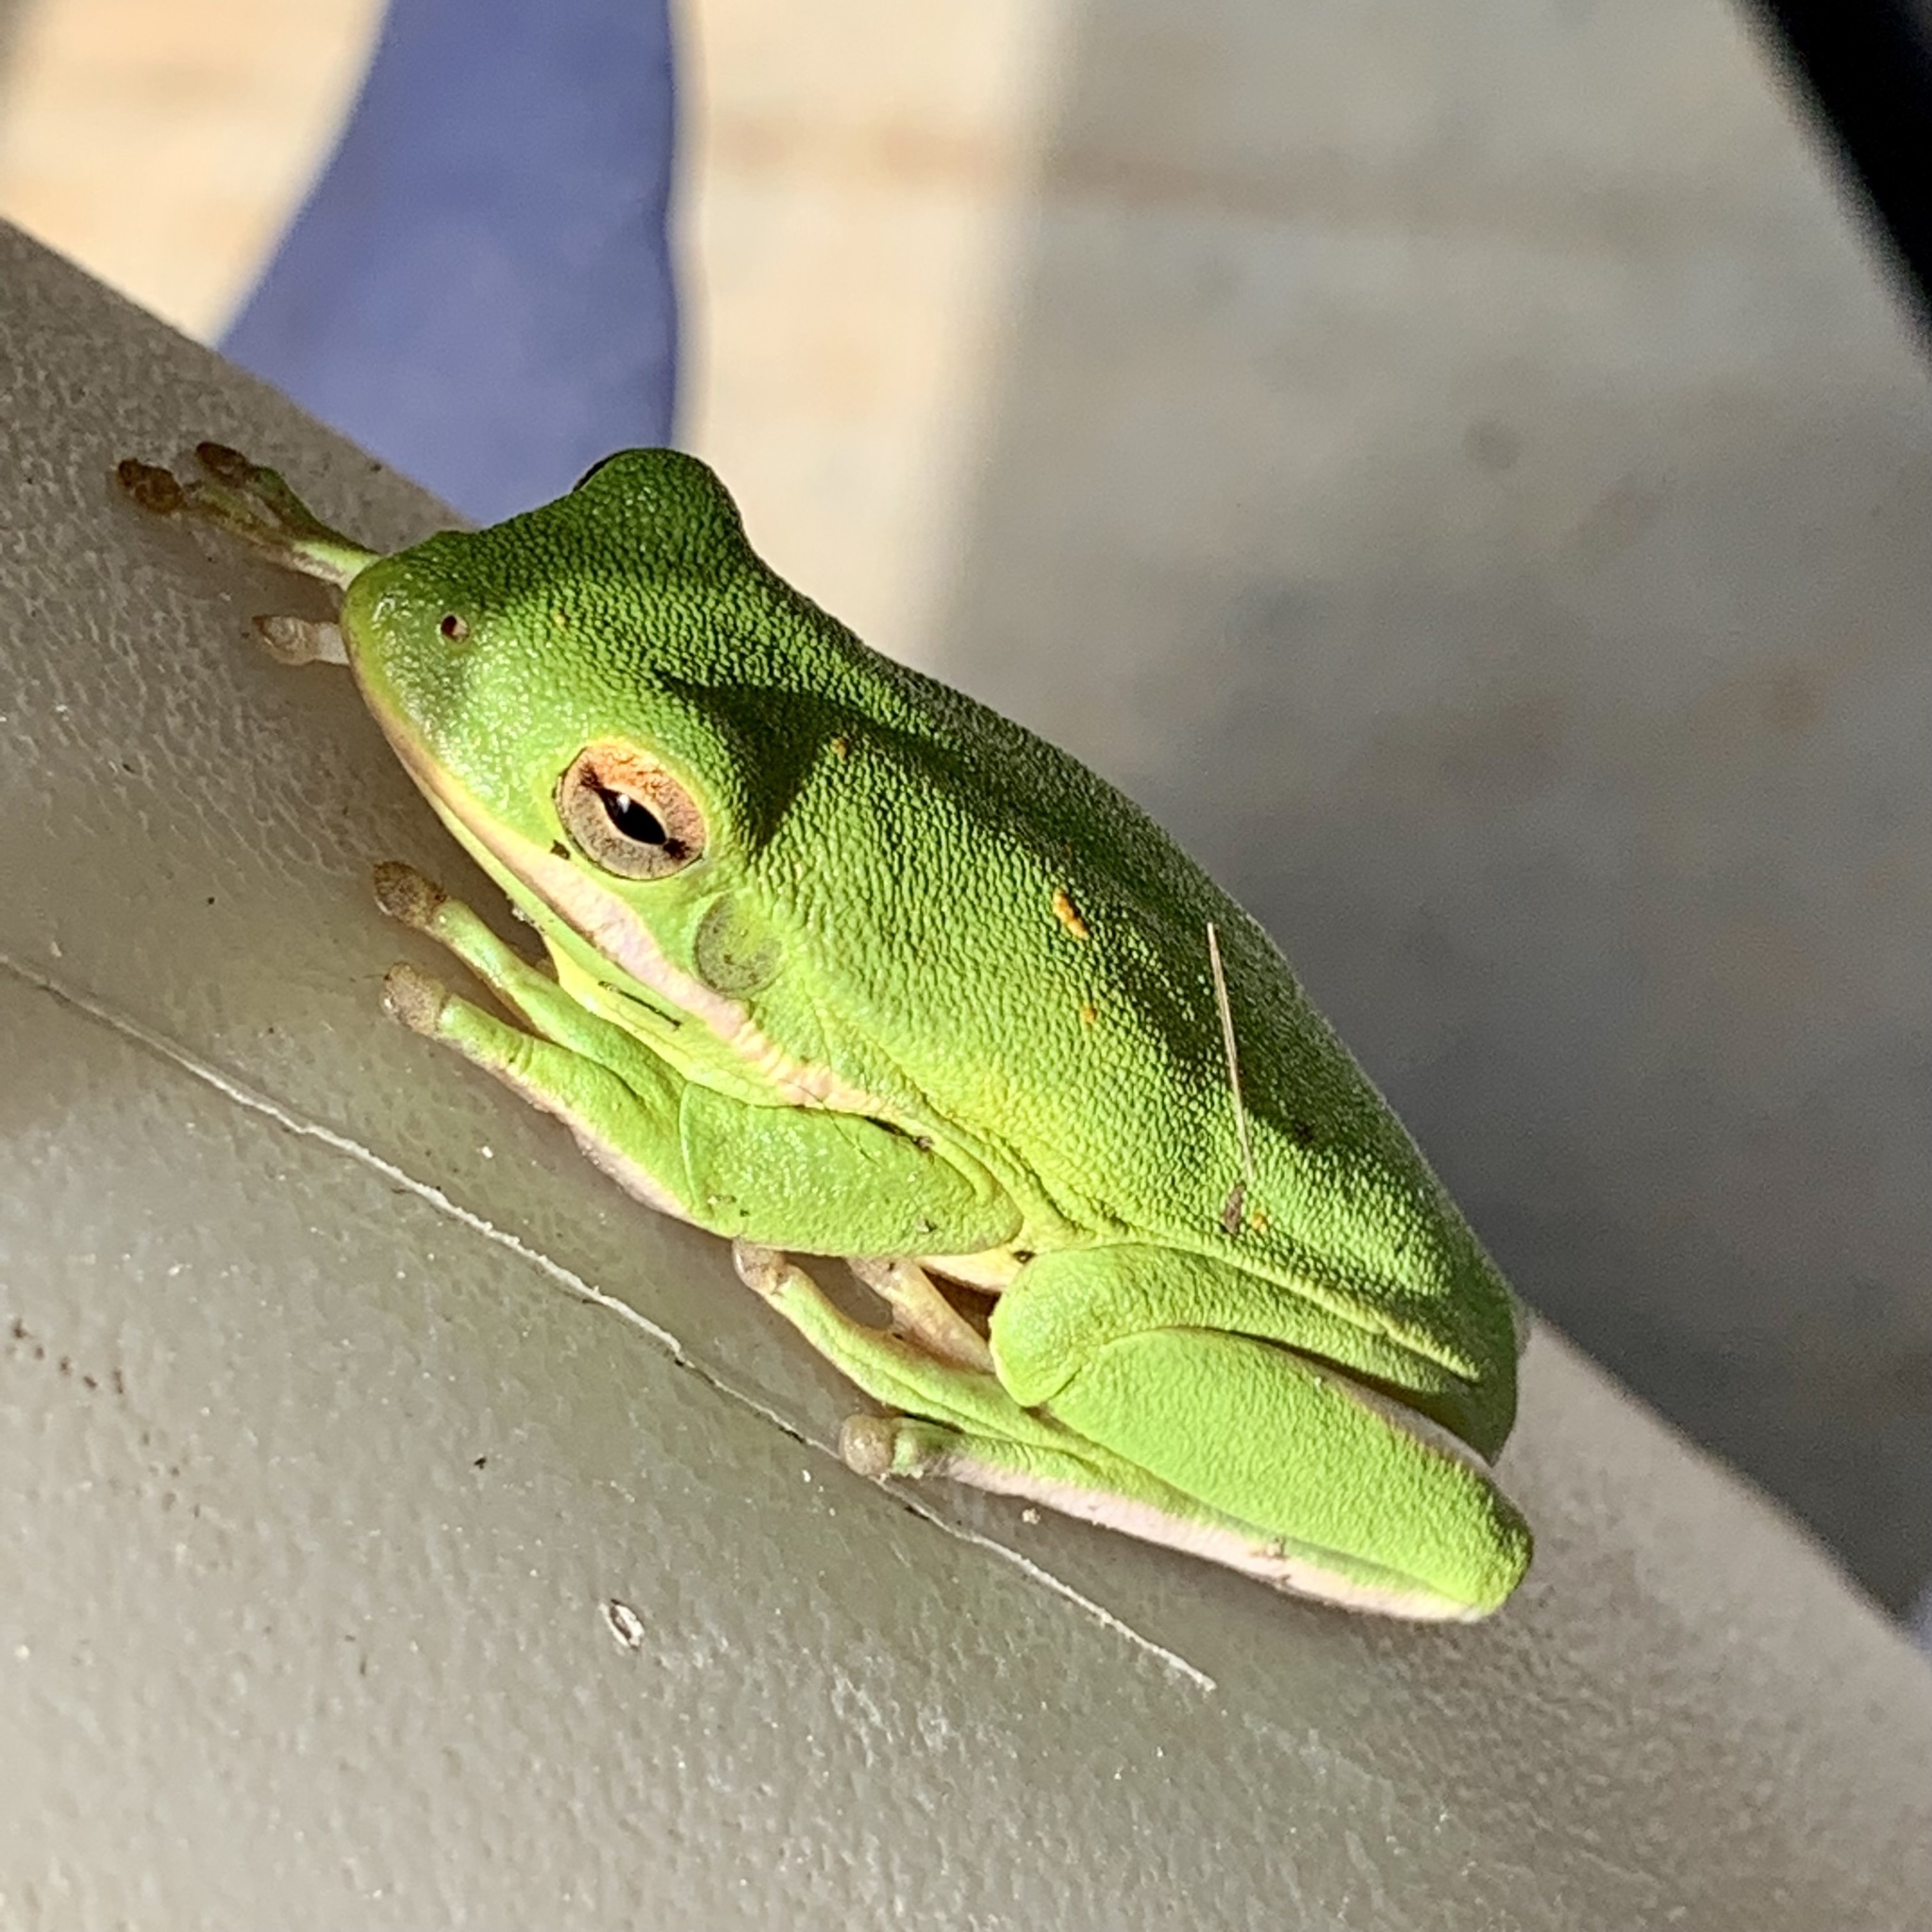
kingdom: Animalia
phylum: Chordata
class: Amphibia
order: Anura
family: Hylidae
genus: Dryophytes
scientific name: Dryophytes cinereus
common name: Green treefrog
